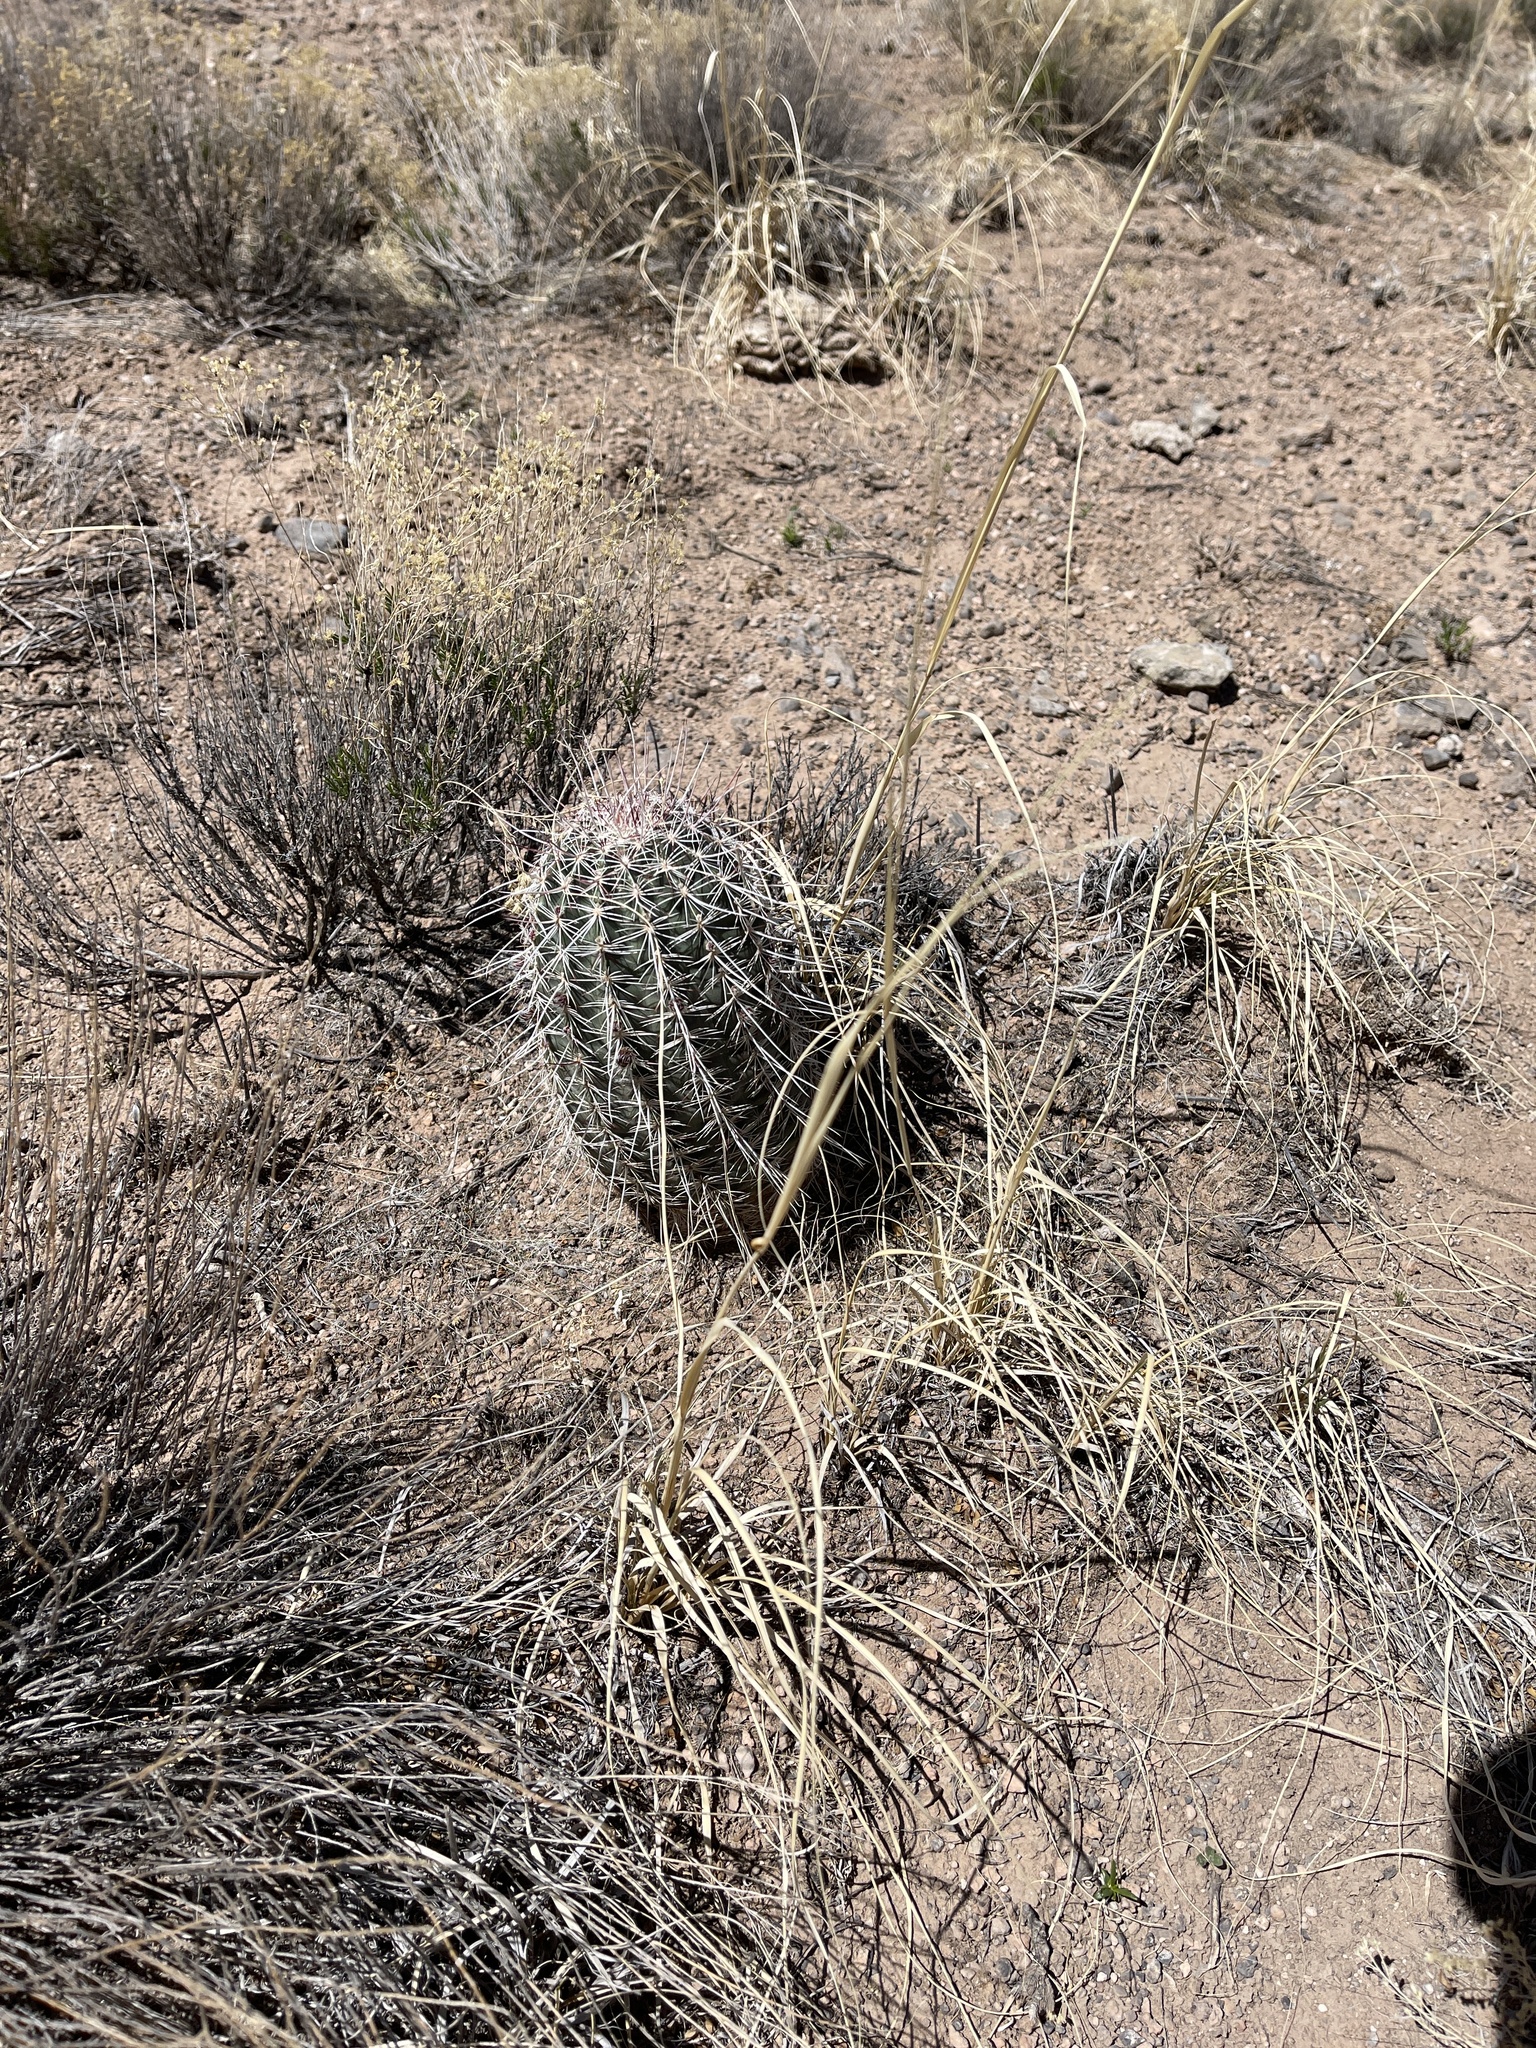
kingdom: Plantae
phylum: Tracheophyta
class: Magnoliopsida
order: Caryophyllales
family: Cactaceae
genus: Echinocereus
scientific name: Echinocereus viridiflorus
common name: Nylon hedgehog cactus
